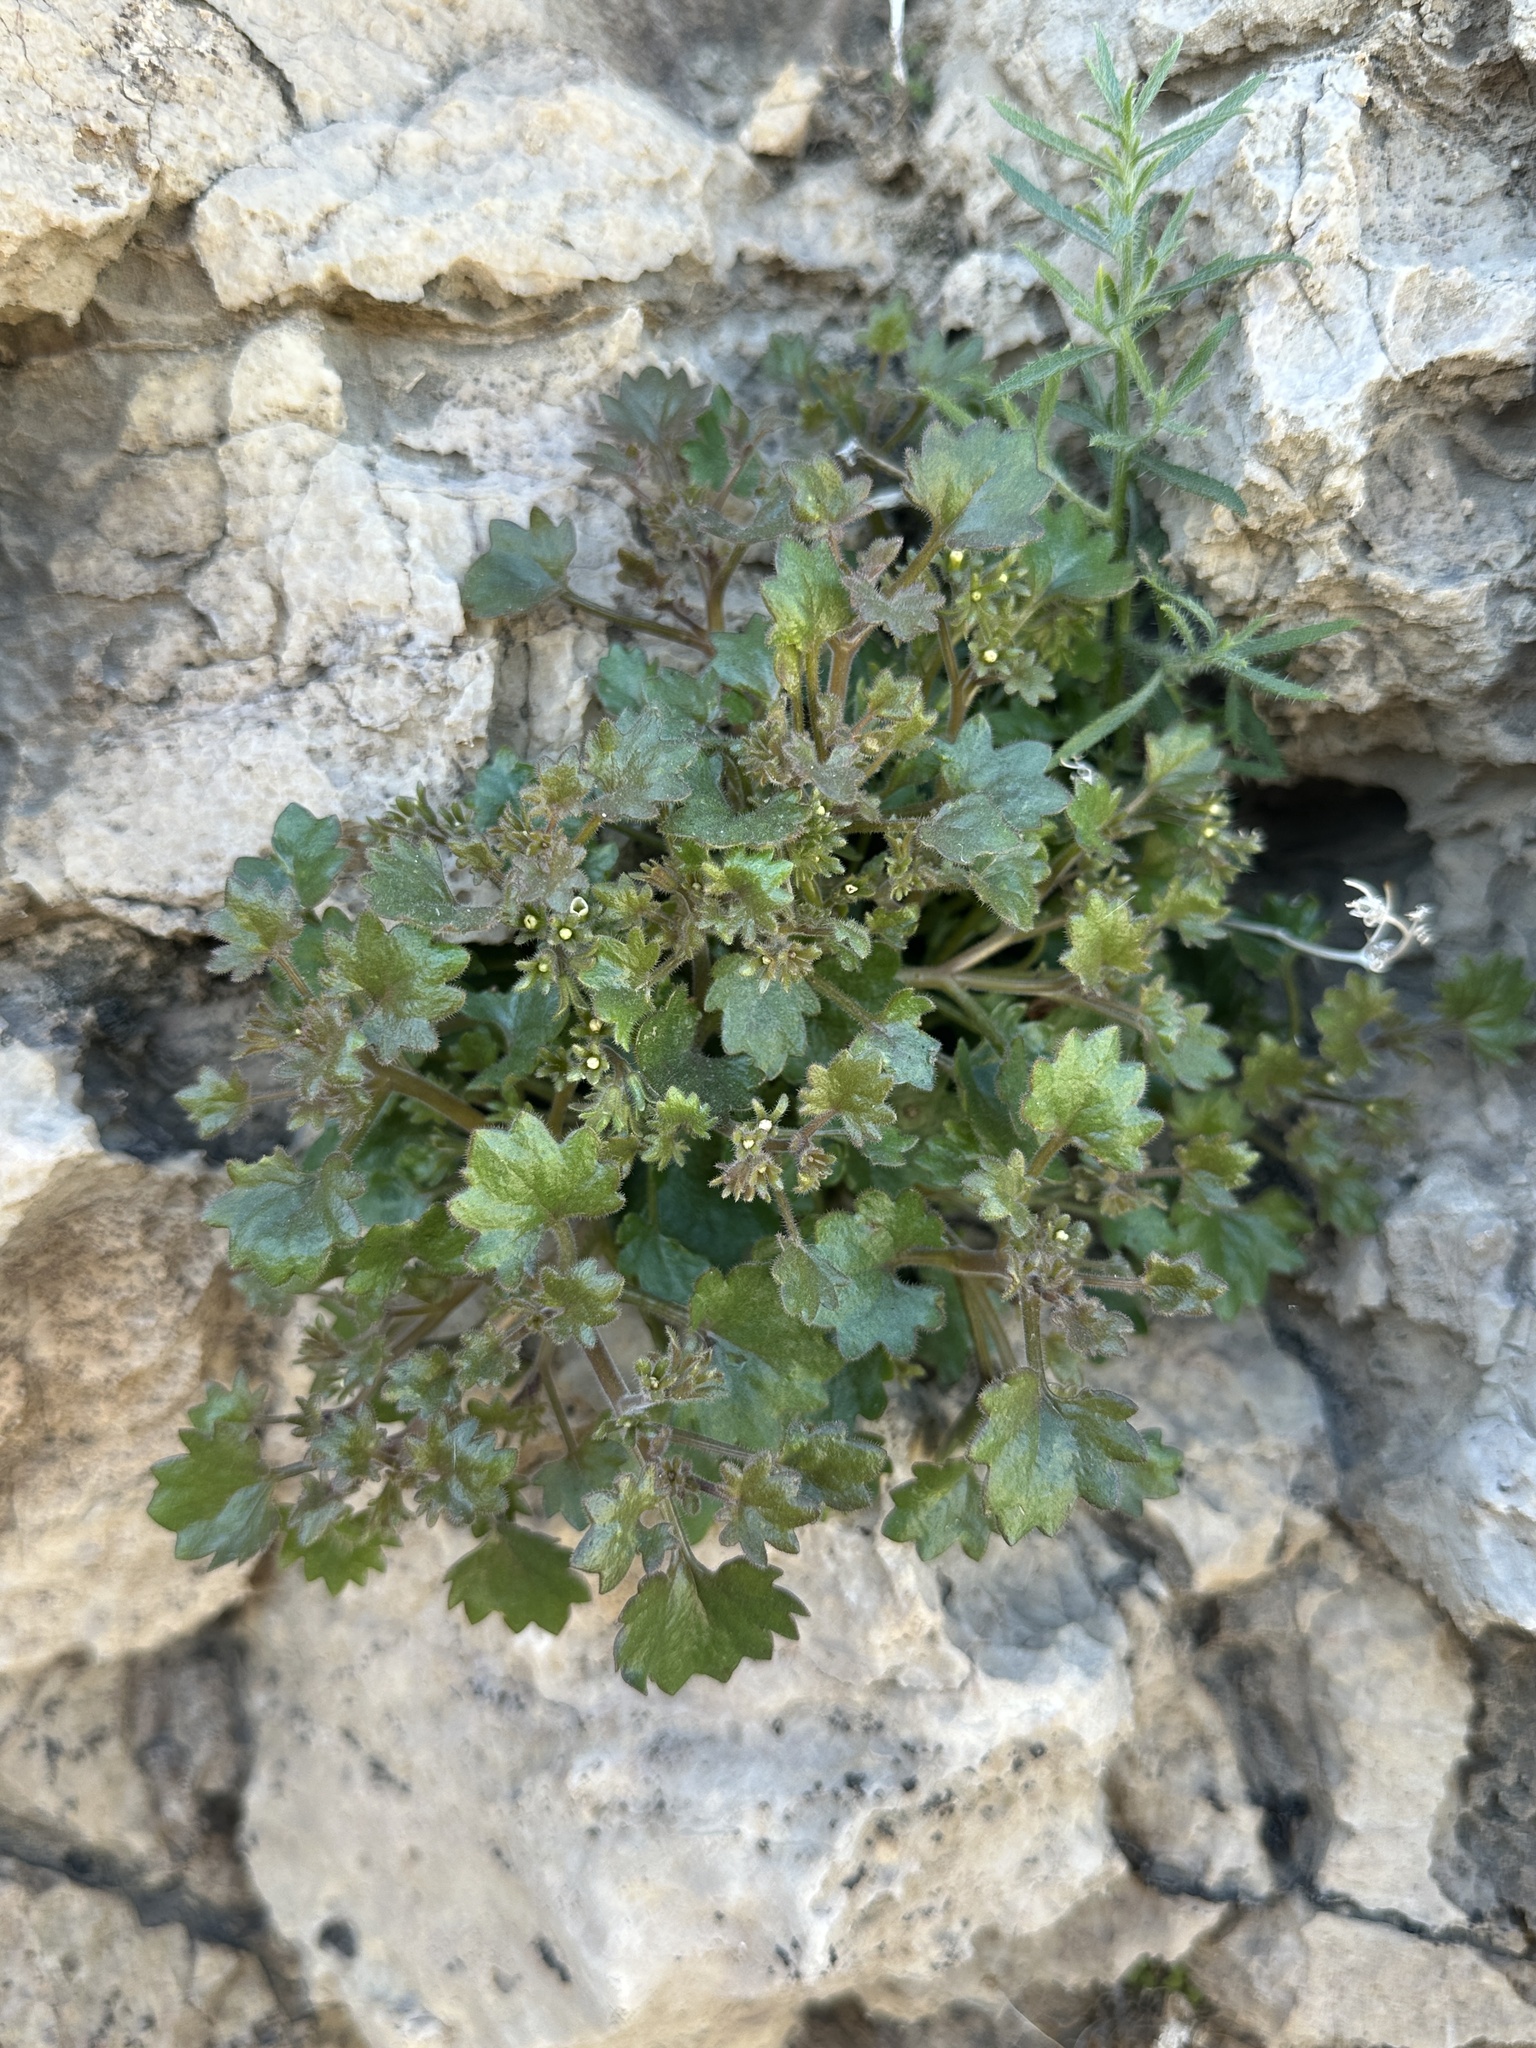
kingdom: Plantae
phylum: Tracheophyta
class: Magnoliopsida
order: Boraginales
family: Hydrophyllaceae
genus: Phacelia
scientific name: Phacelia rotundifolia
